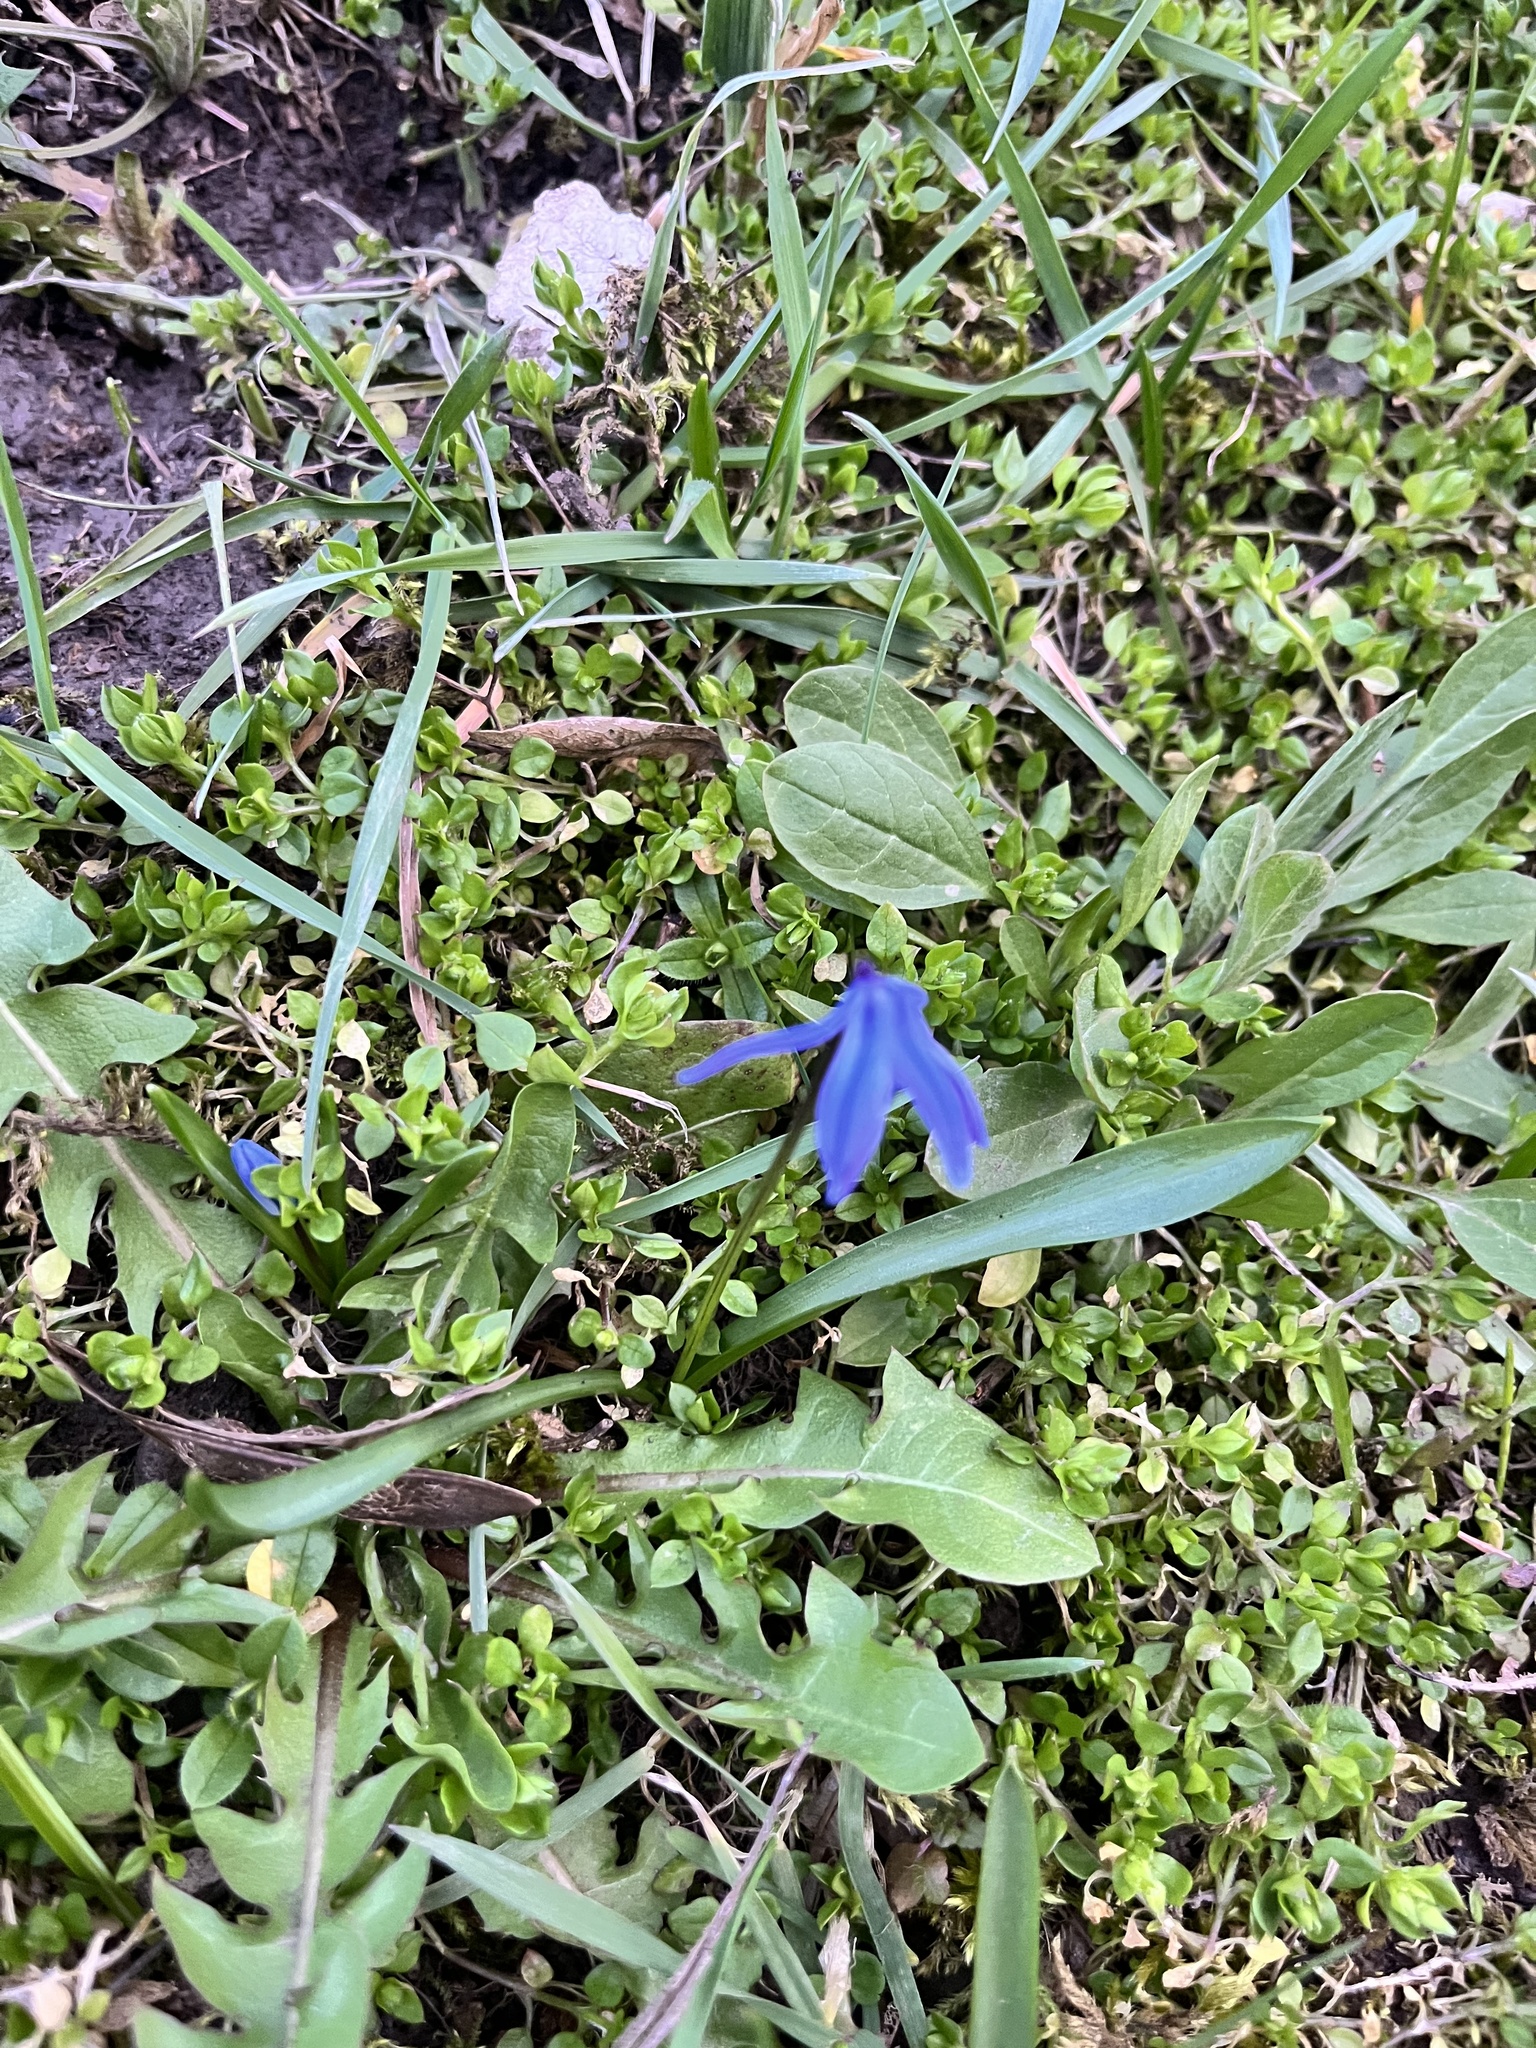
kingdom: Plantae
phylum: Tracheophyta
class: Liliopsida
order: Asparagales
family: Asparagaceae
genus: Scilla
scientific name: Scilla siberica
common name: Siberian squill
